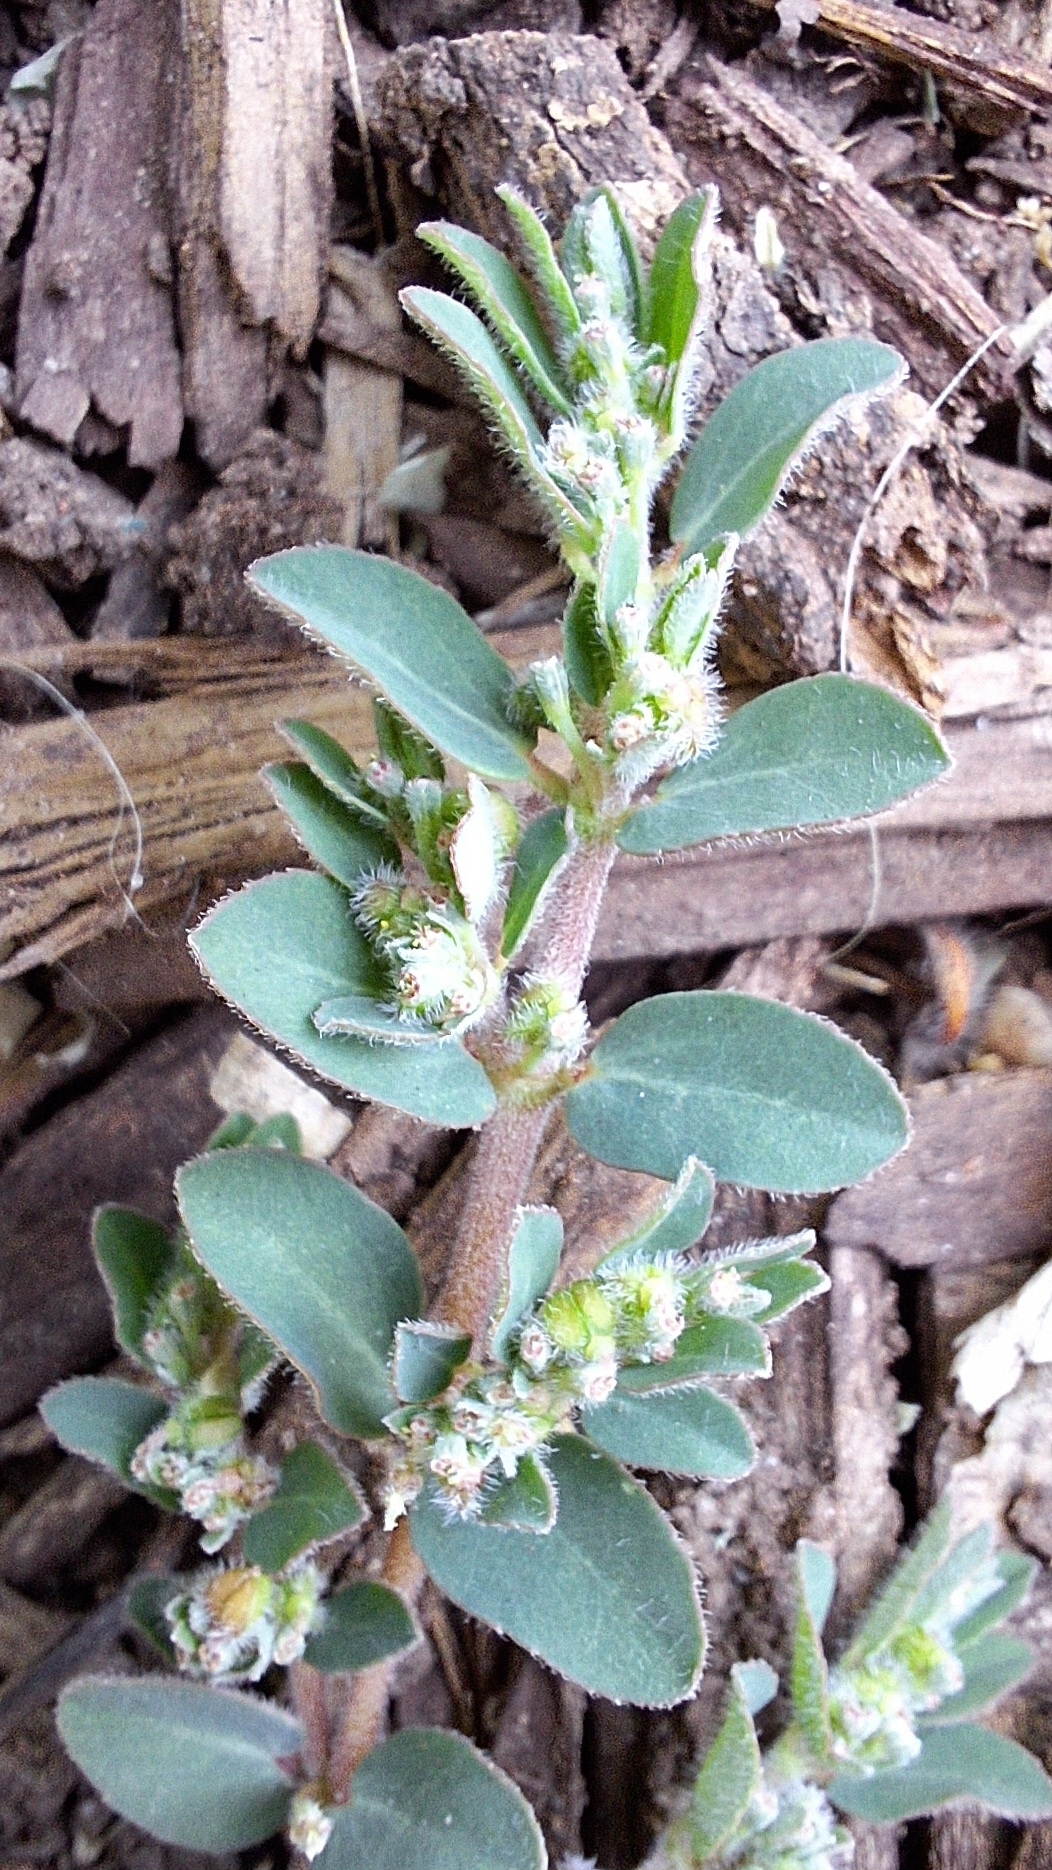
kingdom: Plantae
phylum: Tracheophyta
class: Magnoliopsida
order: Malpighiales
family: Euphorbiaceae
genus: Euphorbia
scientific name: Euphorbia prostrata
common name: Prostrate sandmat
